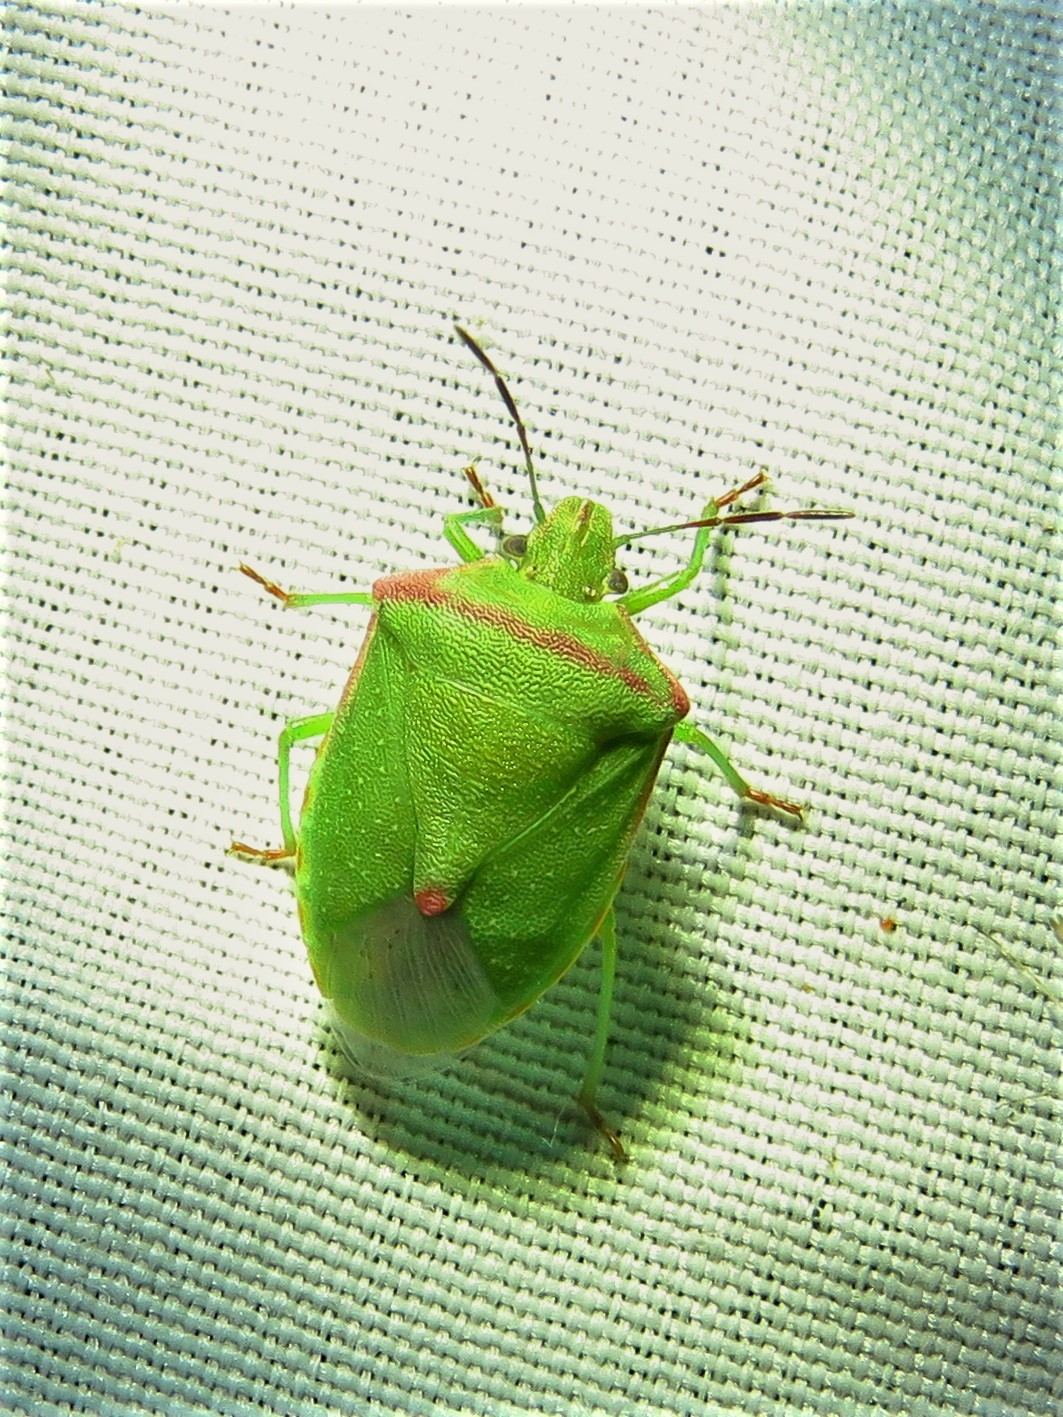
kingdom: Animalia
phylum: Arthropoda
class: Insecta
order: Hemiptera
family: Pentatomidae
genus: Thyanta
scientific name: Thyanta custator
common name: Stink bug
